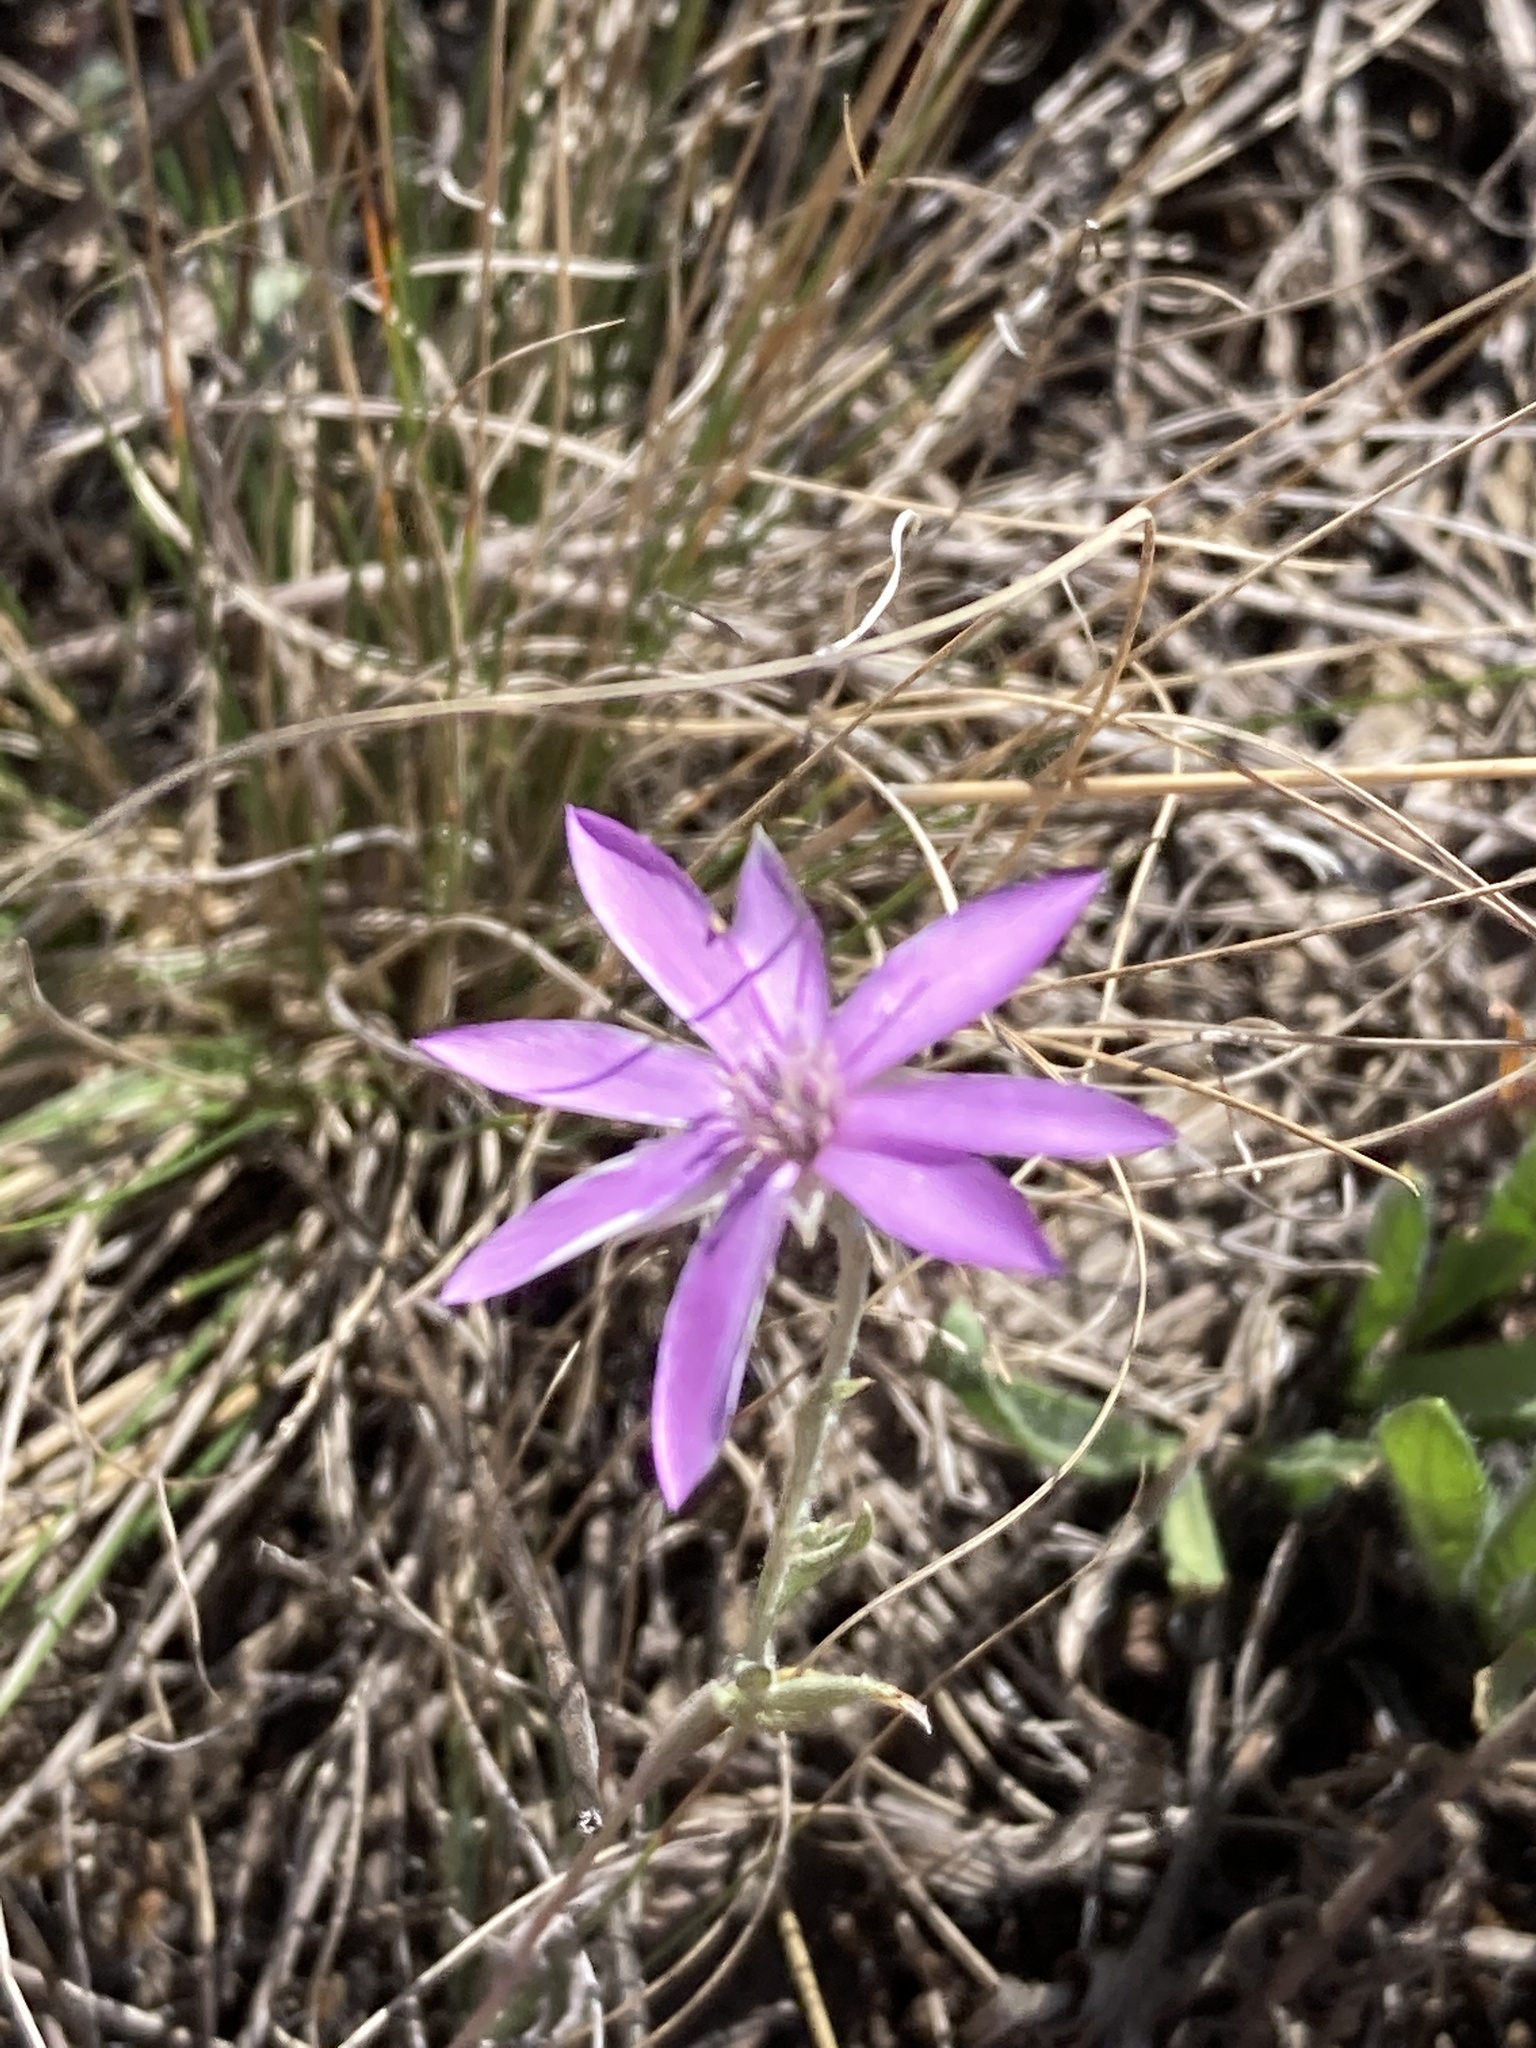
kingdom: Plantae
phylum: Tracheophyta
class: Magnoliopsida
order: Asterales
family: Asteraceae
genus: Xeranthemum
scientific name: Xeranthemum annuum
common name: Immortelle
